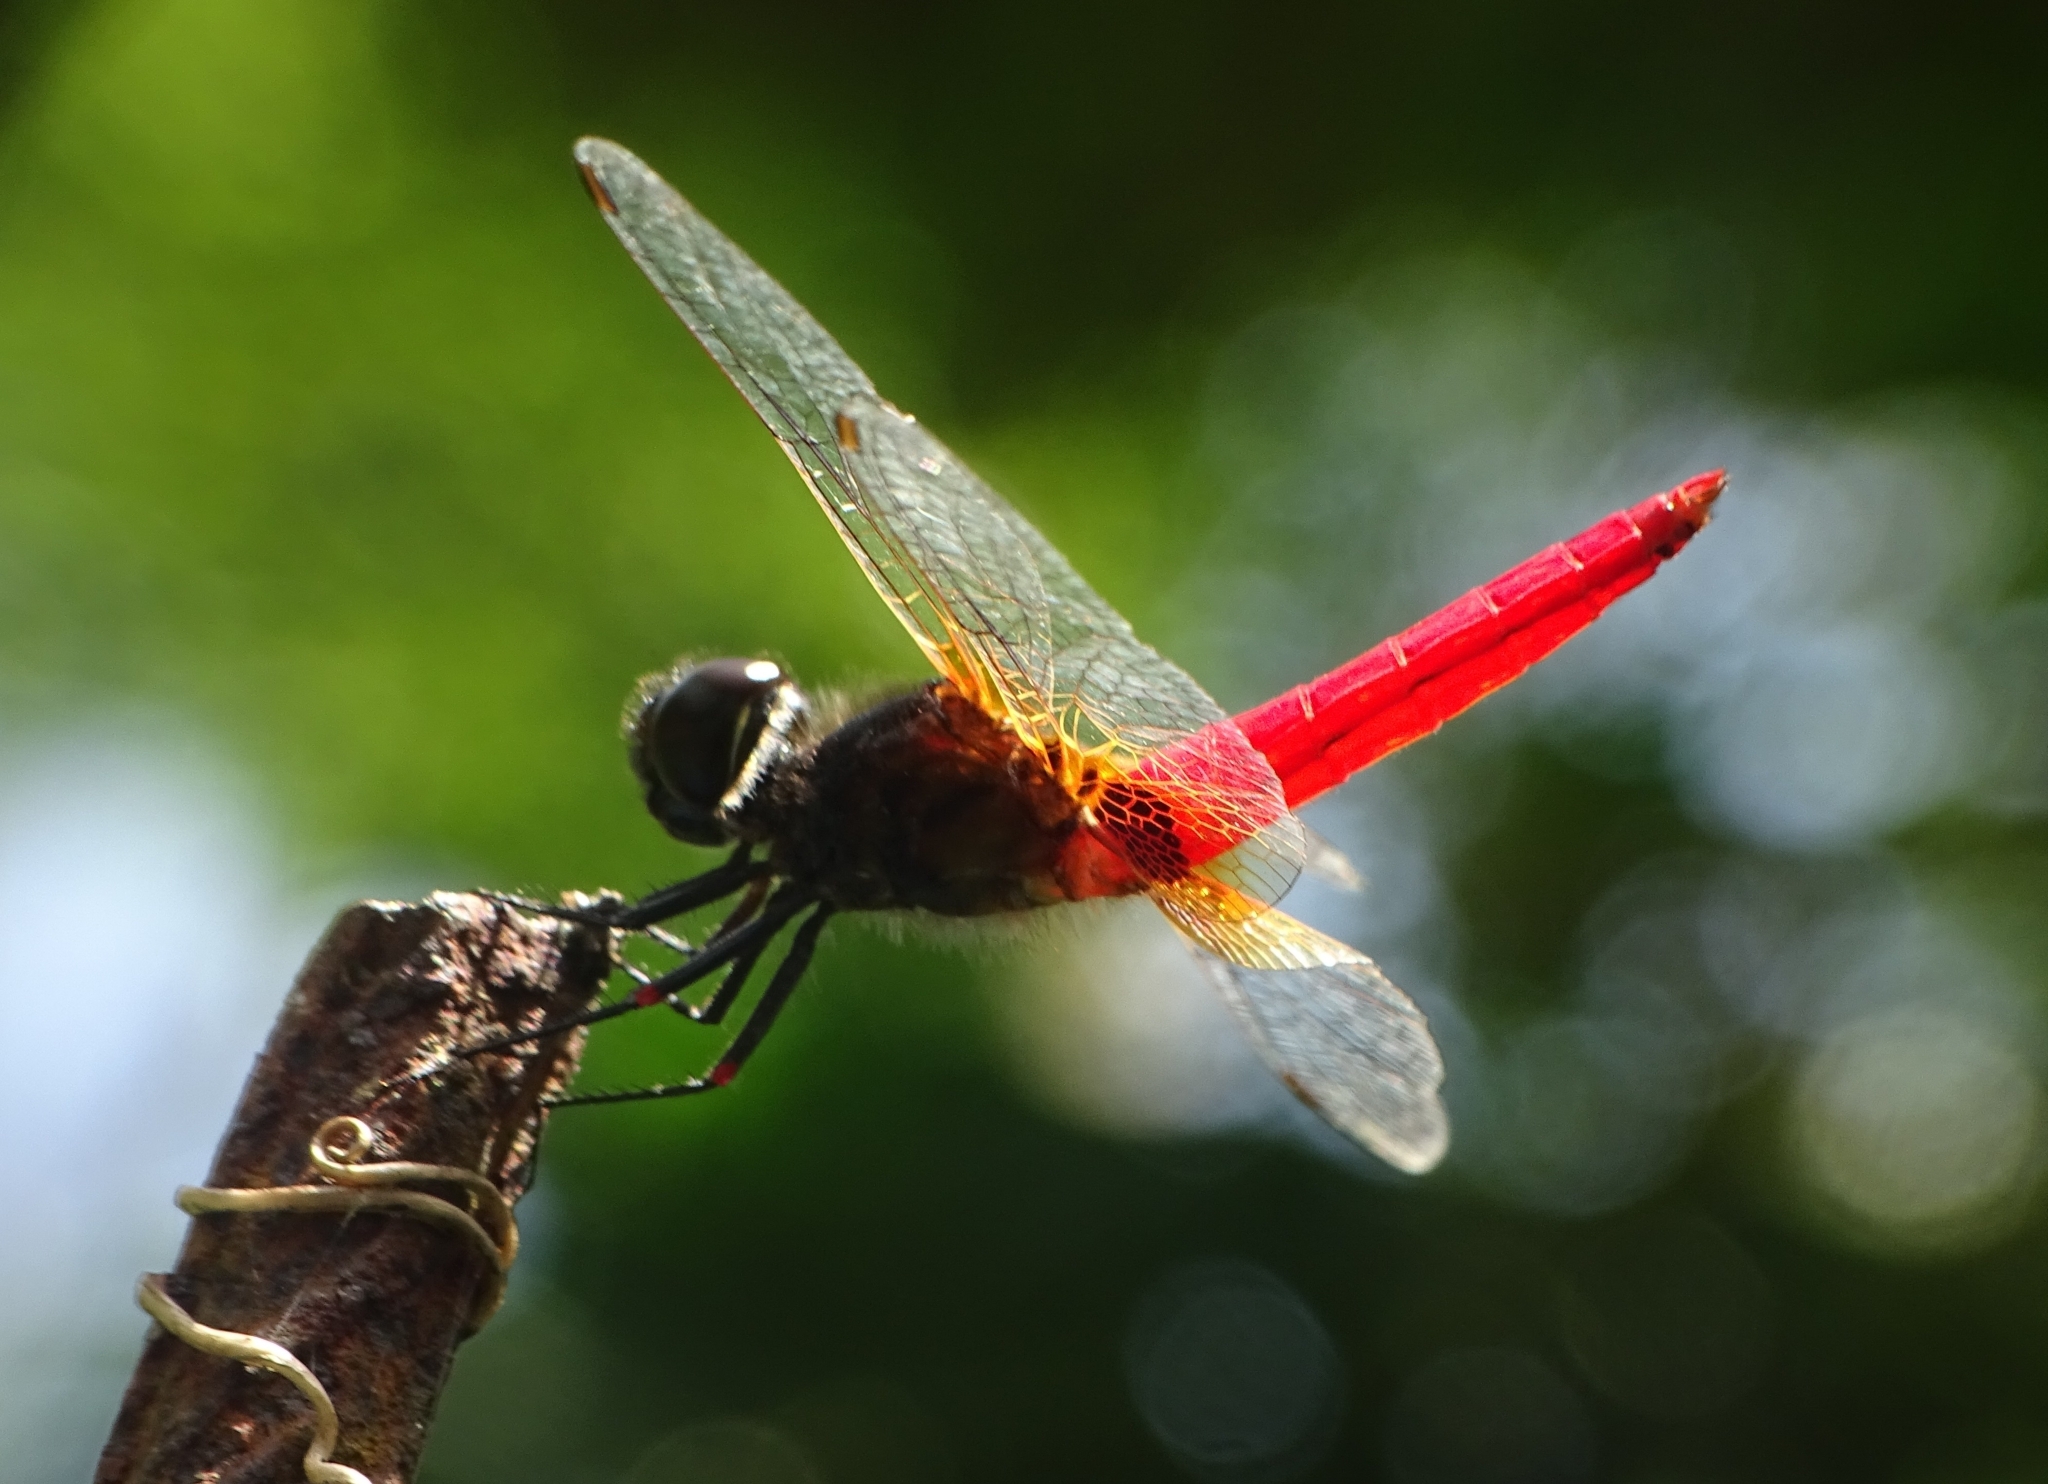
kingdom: Animalia
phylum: Arthropoda
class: Insecta
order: Odonata
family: Libellulidae
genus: Aethriamanta
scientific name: Aethriamanta brevipennis
